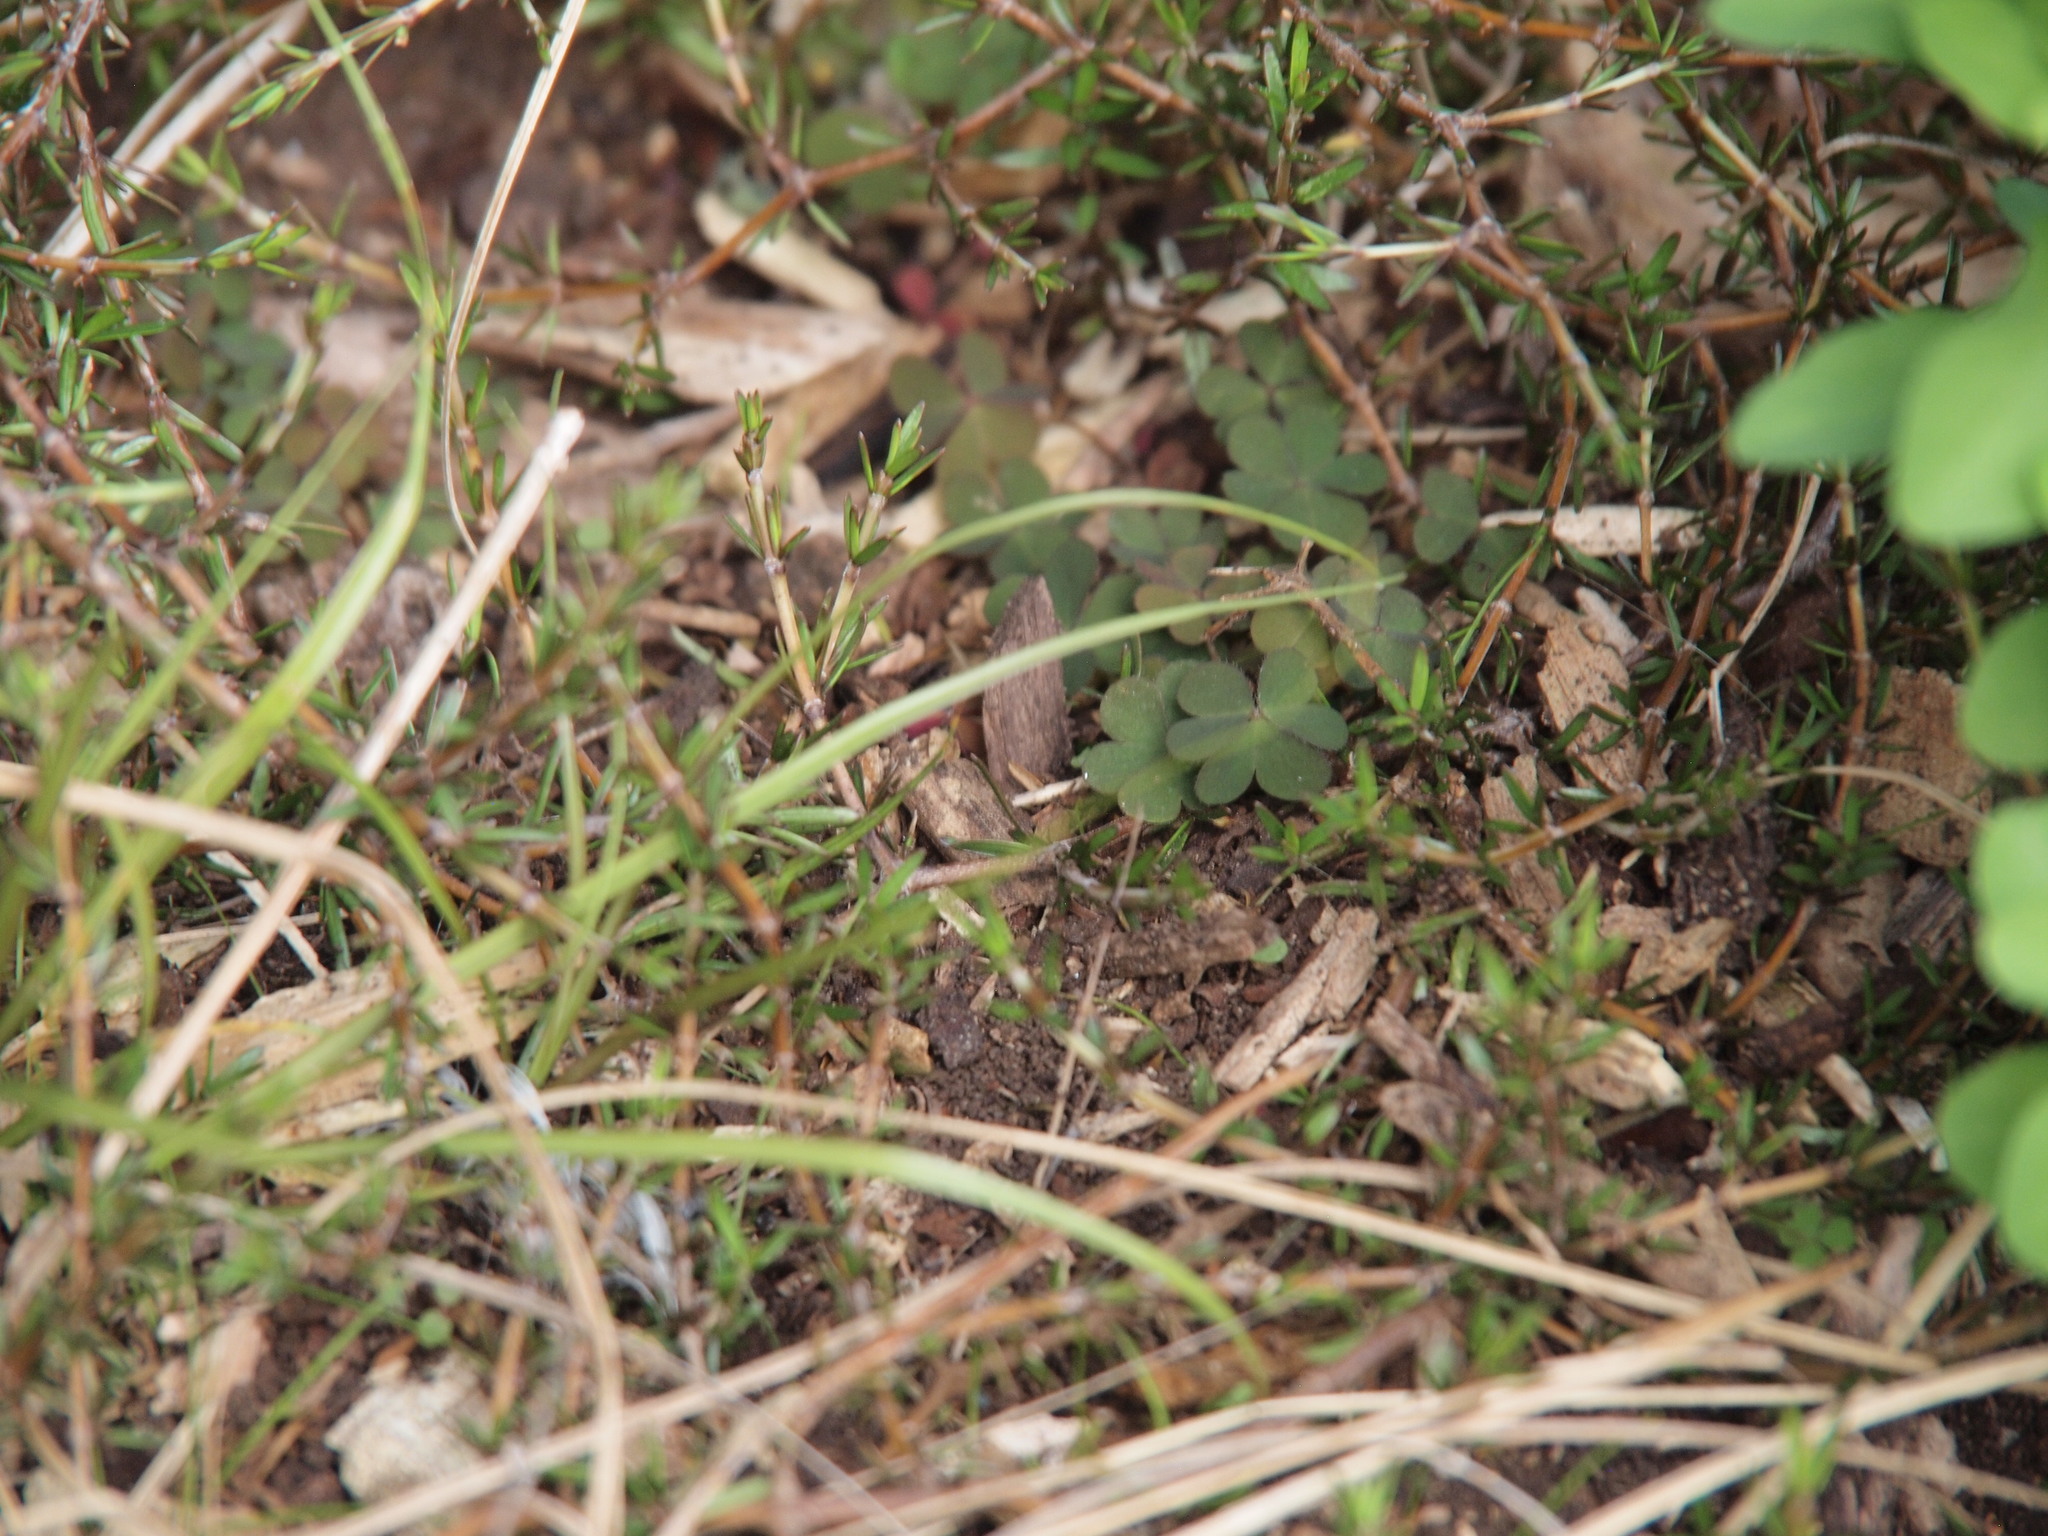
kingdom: Plantae
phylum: Tracheophyta
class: Magnoliopsida
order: Oxalidales
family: Oxalidaceae
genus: Oxalis
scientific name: Oxalis corniculata
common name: Procumbent yellow-sorrel
